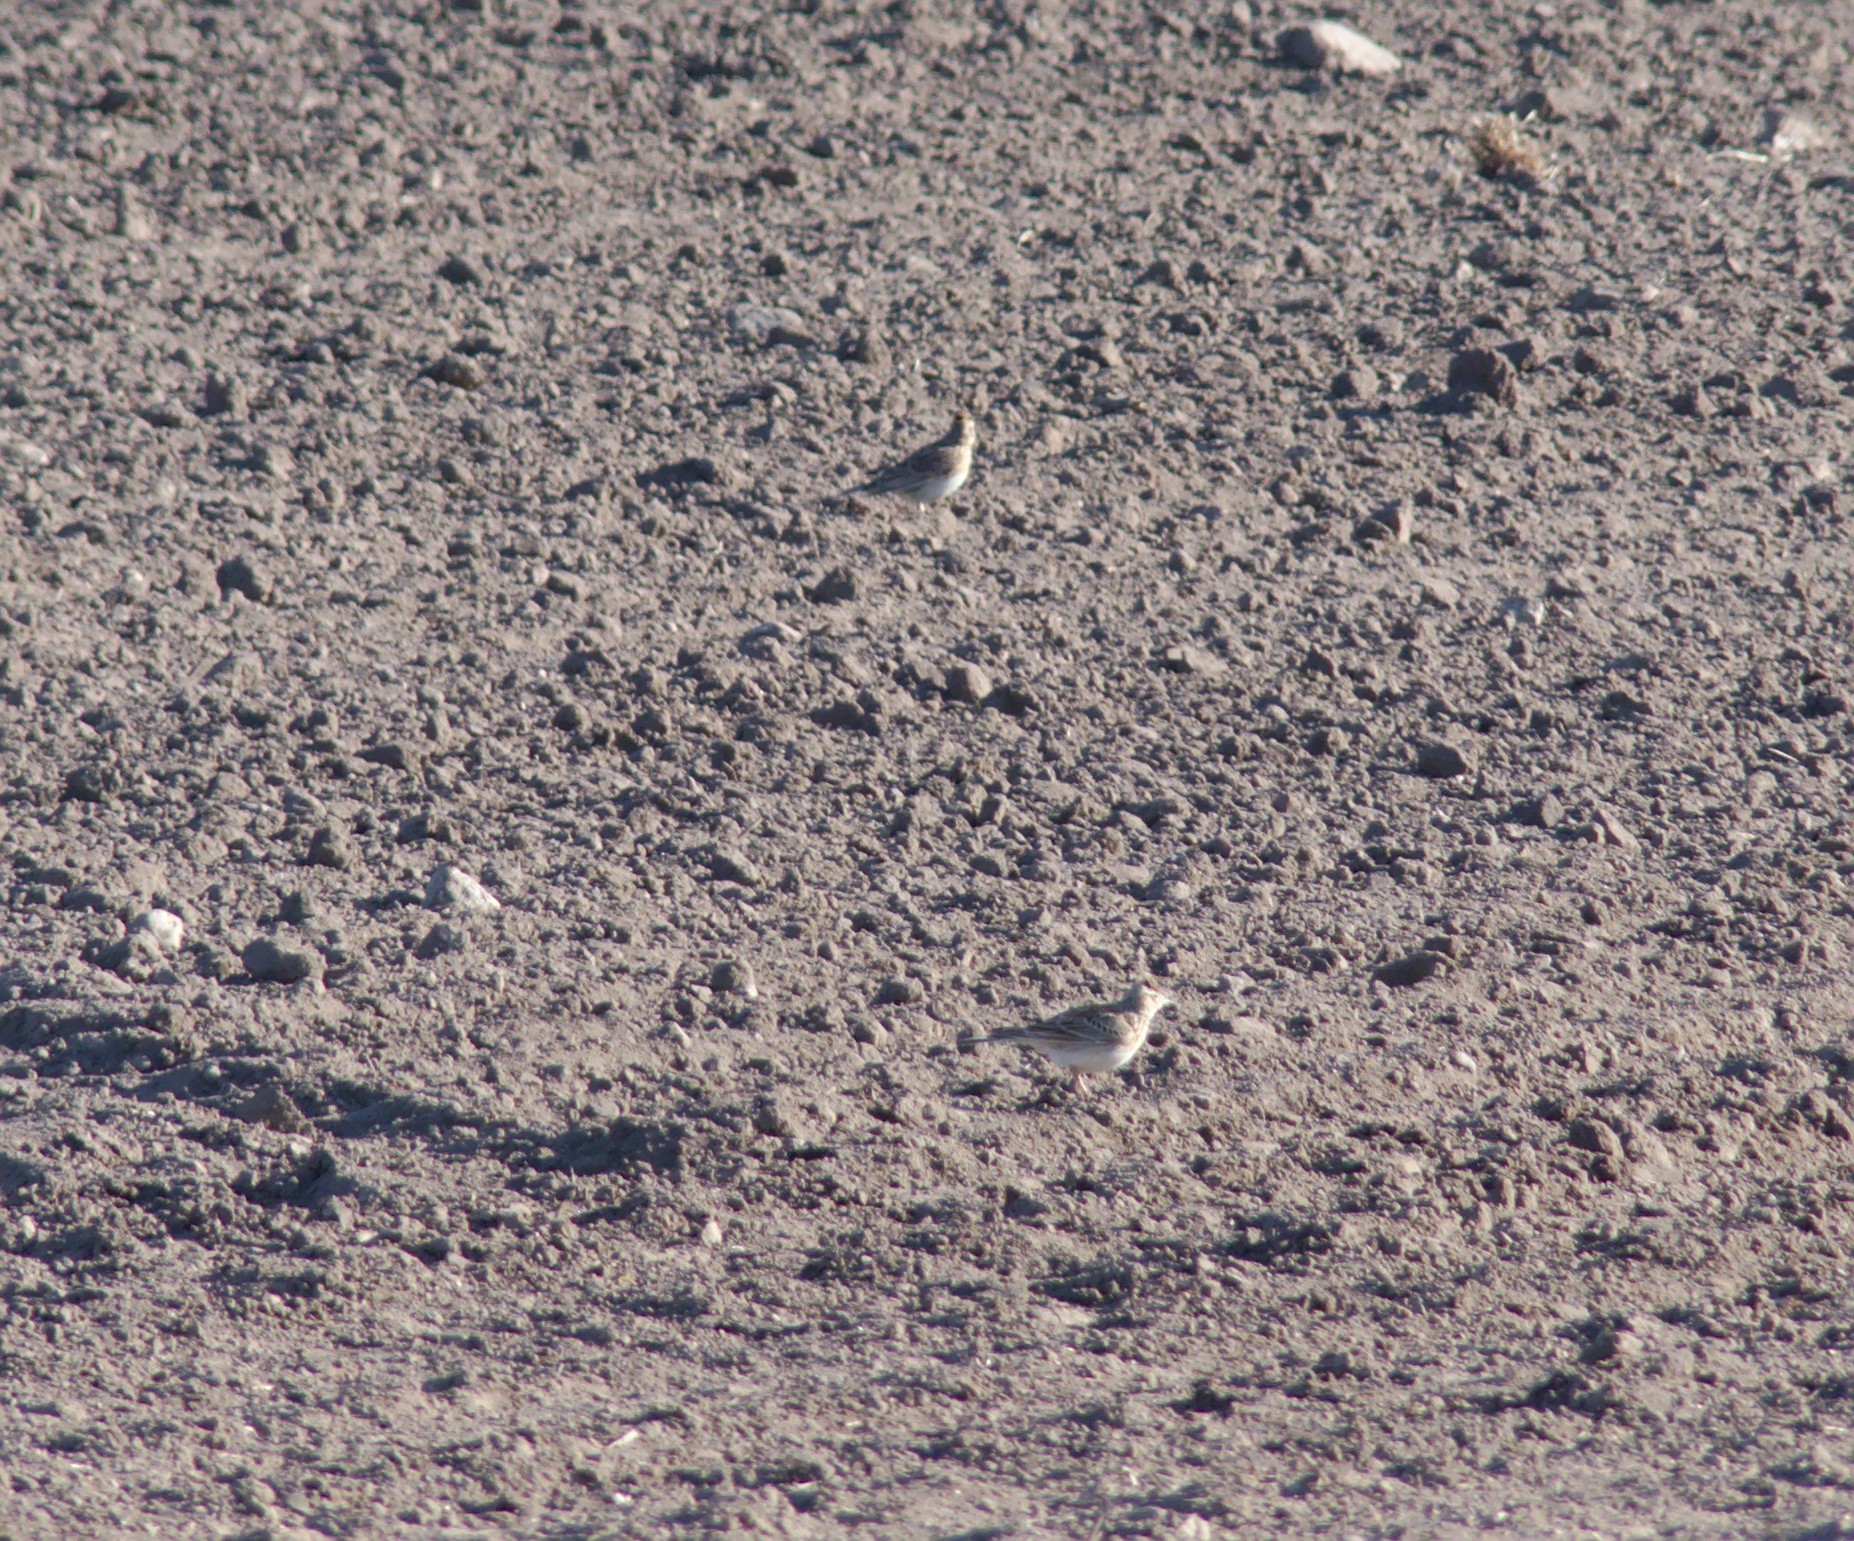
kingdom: Animalia
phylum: Chordata
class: Aves
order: Passeriformes
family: Alaudidae
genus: Alauda
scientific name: Alauda arvensis
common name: Eurasian skylark
